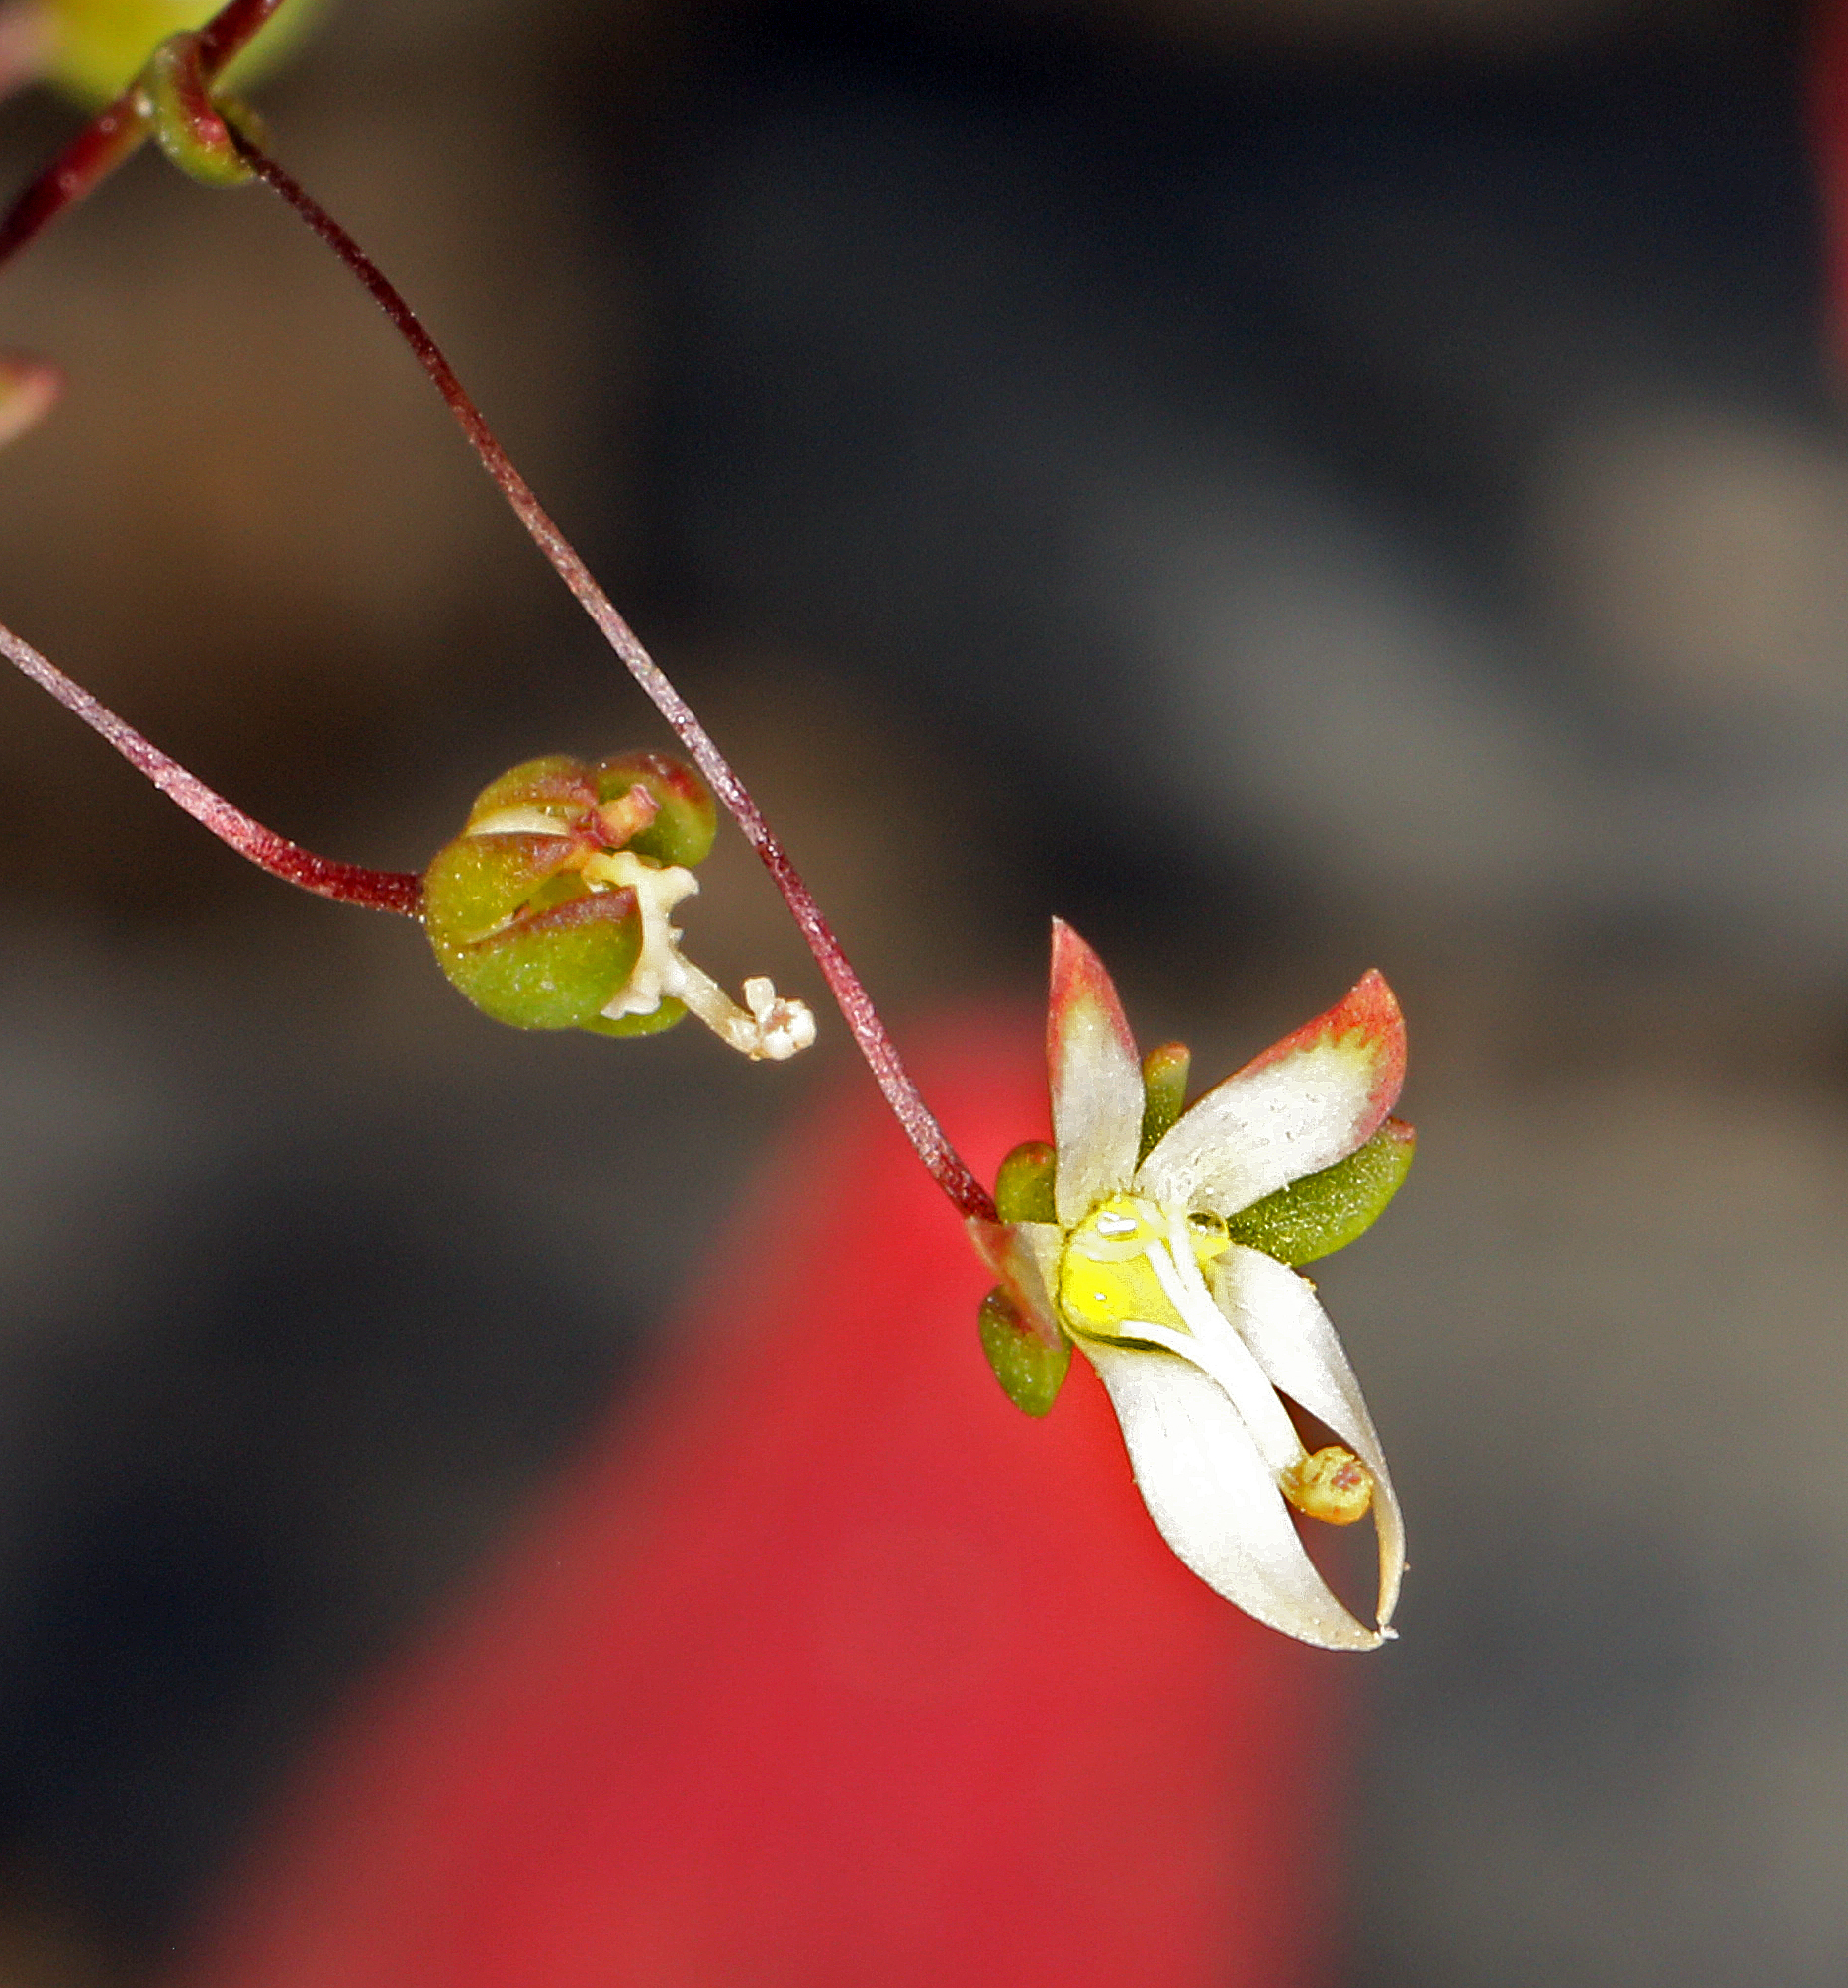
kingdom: Plantae
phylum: Tracheophyta
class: Magnoliopsida
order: Asterales
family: Campanulaceae
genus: Nemacladus
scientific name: Nemacladus morefieldii
